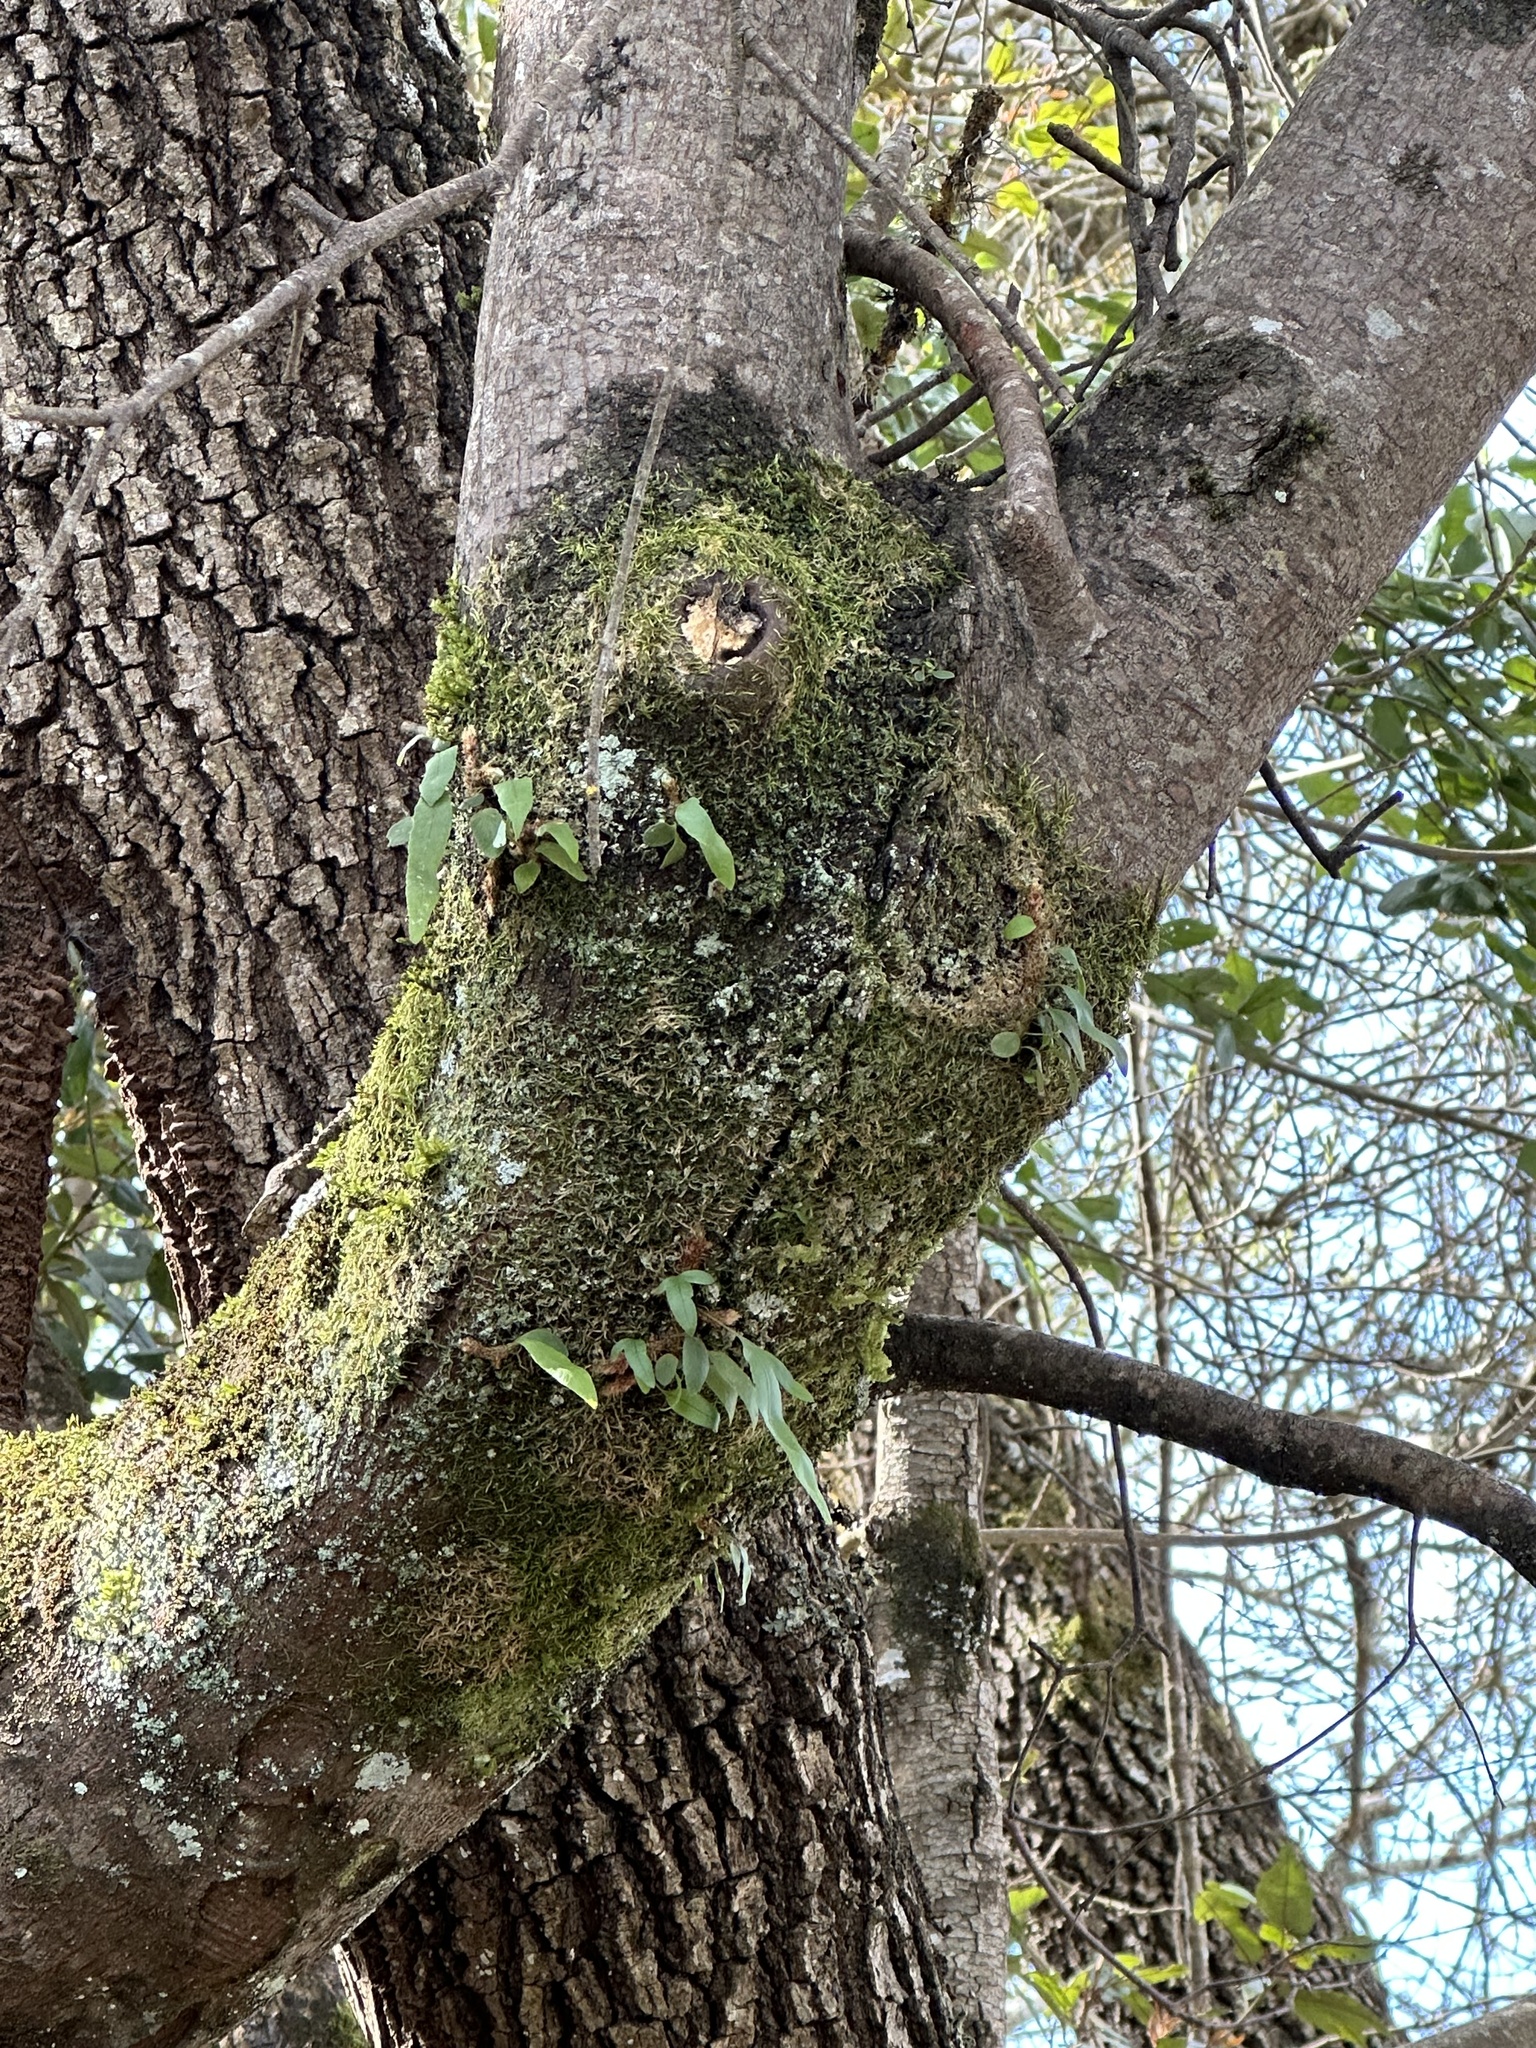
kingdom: Plantae
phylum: Tracheophyta
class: Polypodiopsida
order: Polypodiales
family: Polypodiaceae
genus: Synammia
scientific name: Synammia feuillei
